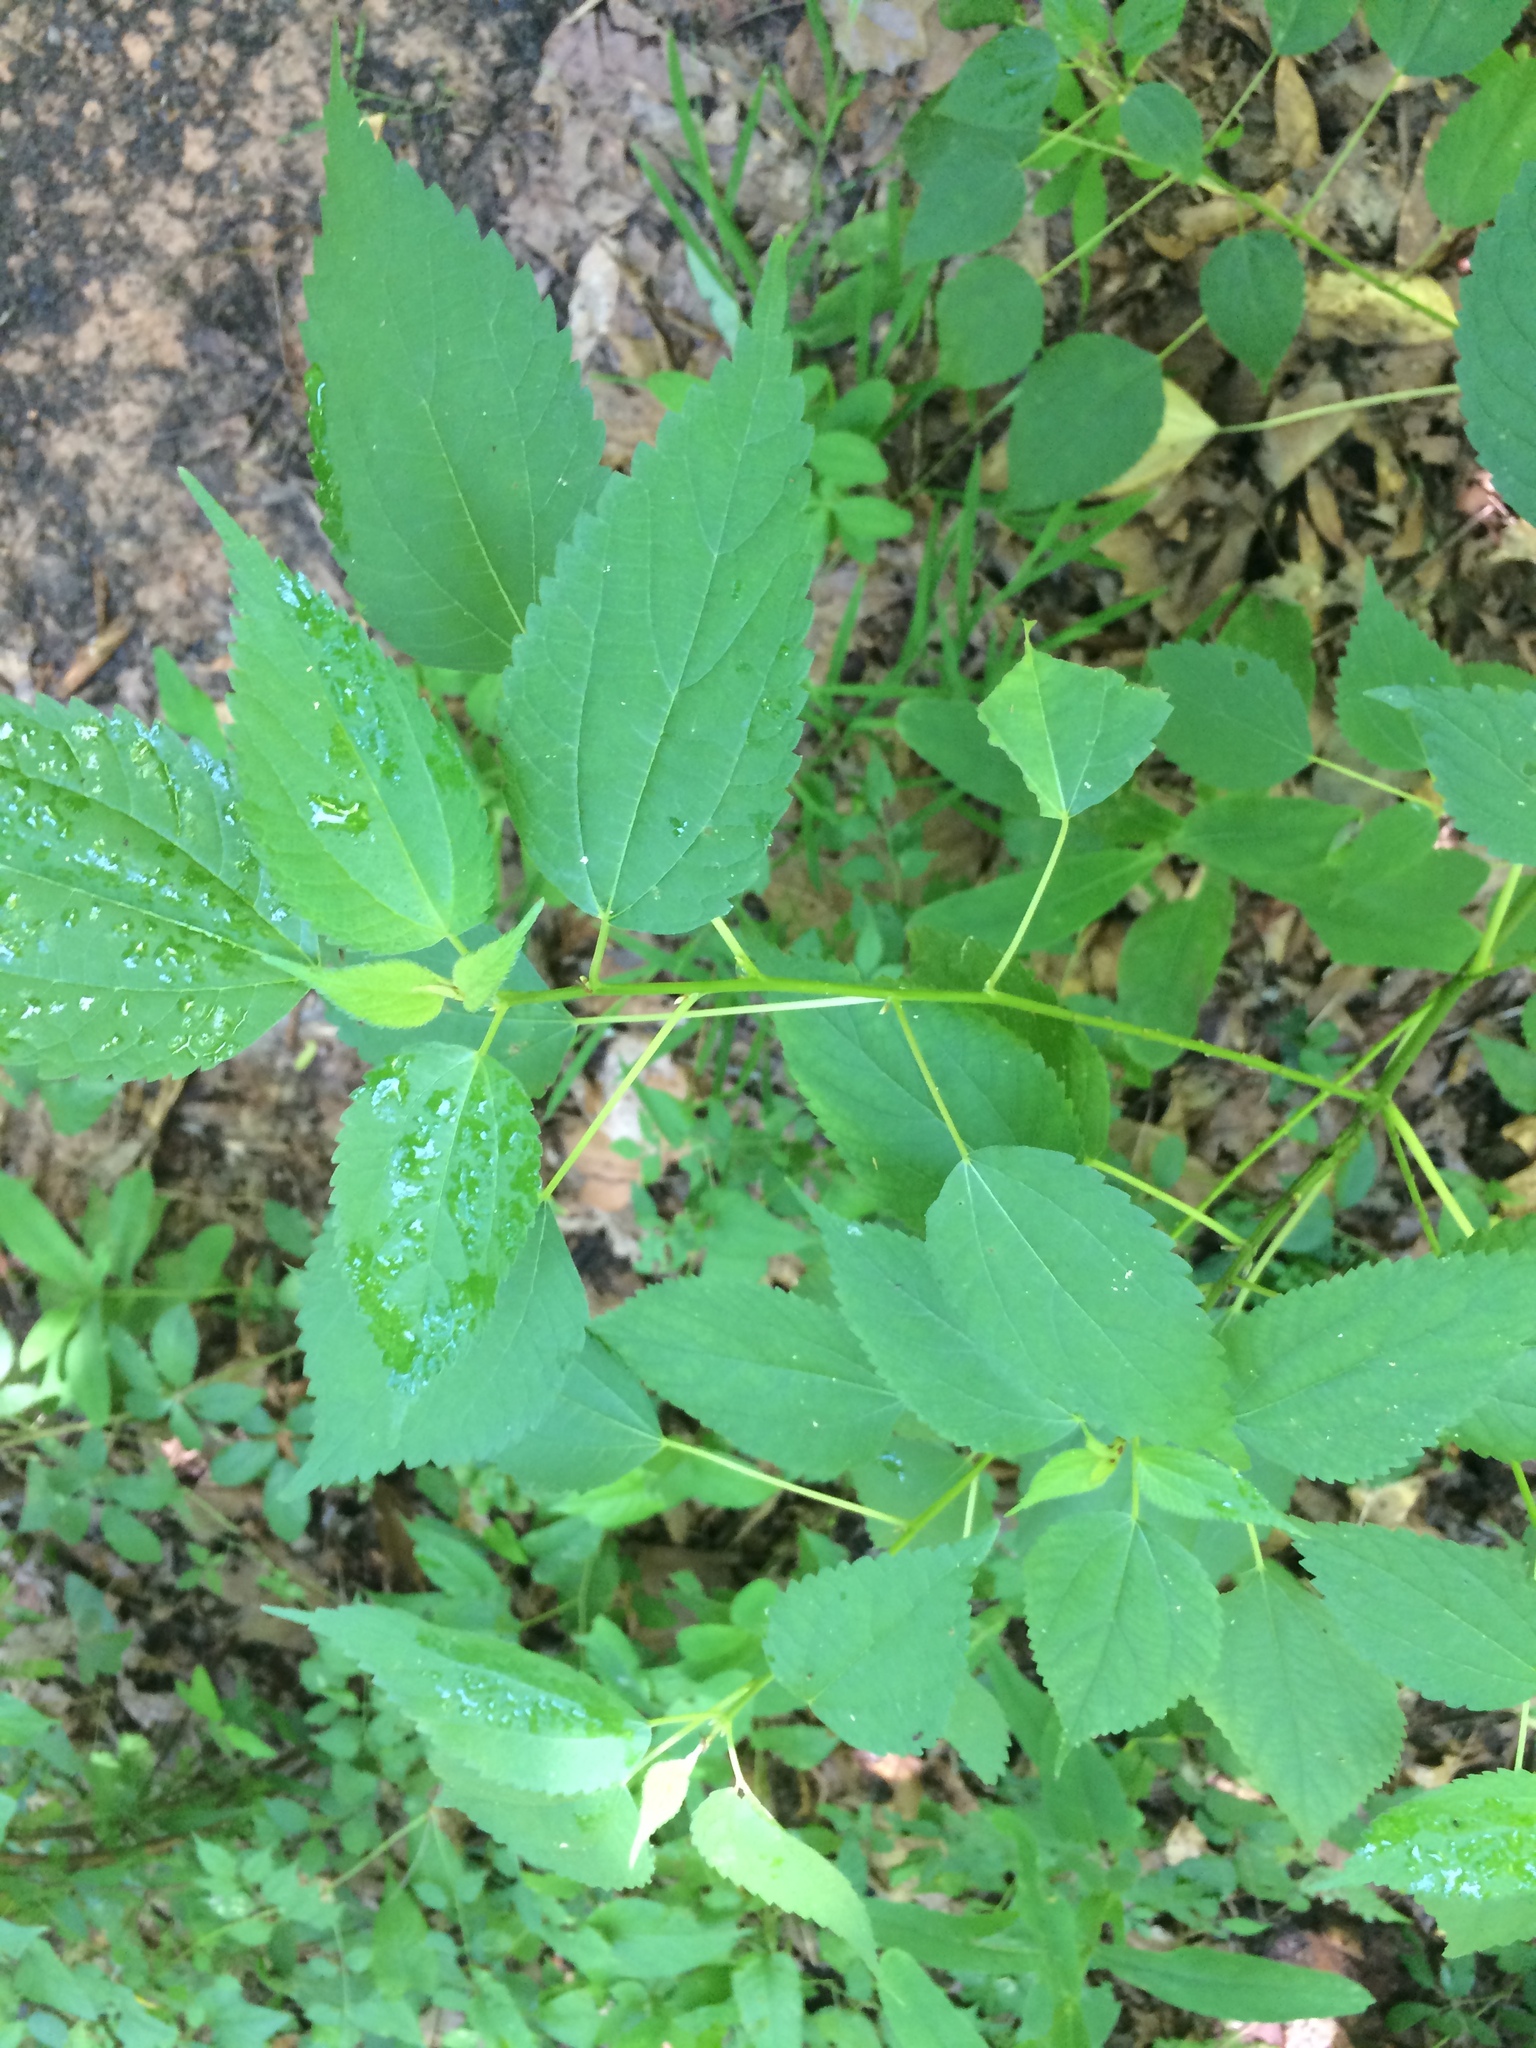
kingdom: Plantae
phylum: Tracheophyta
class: Magnoliopsida
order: Rosales
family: Urticaceae
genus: Boehmeria
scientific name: Boehmeria cylindrica
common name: Bog-hemp
